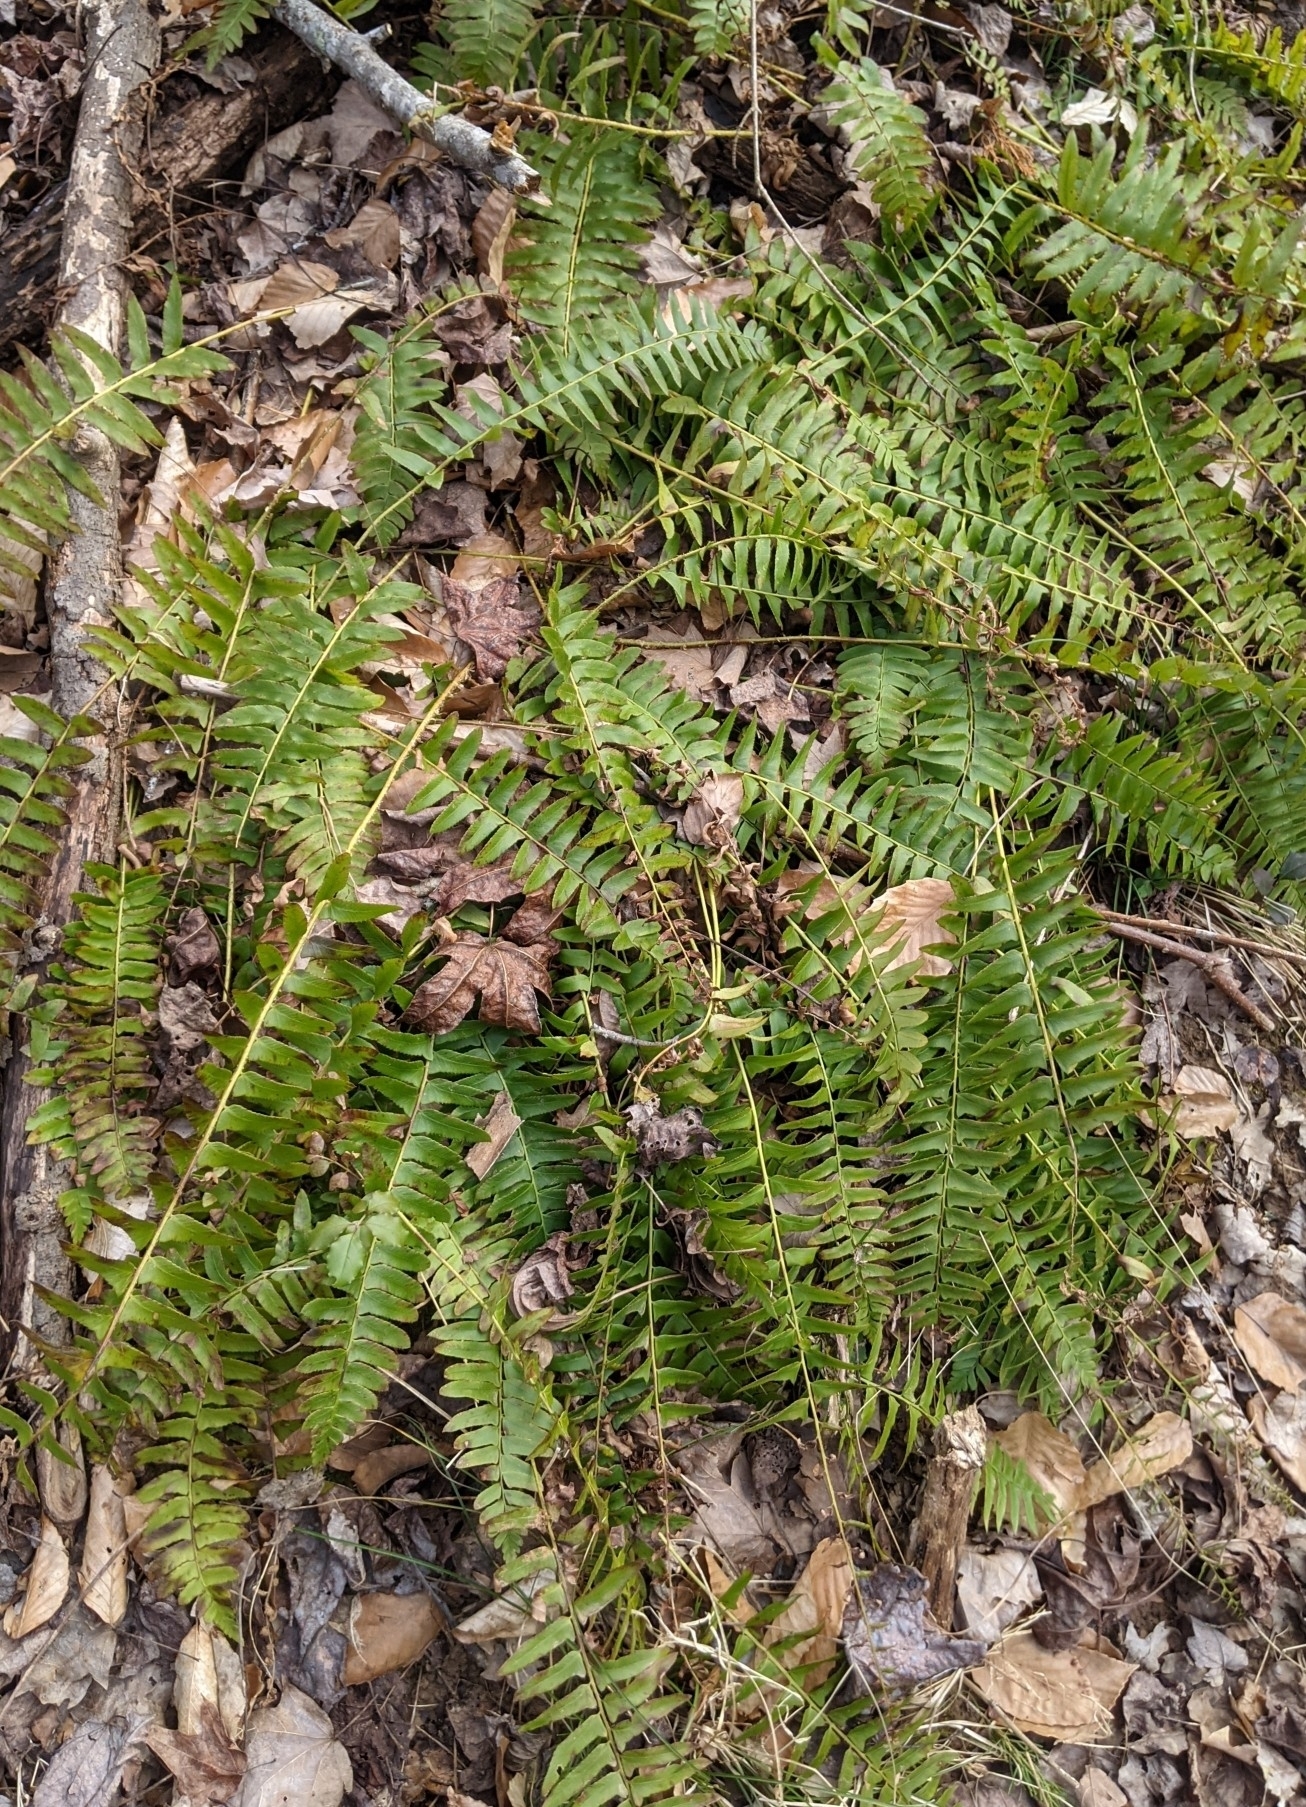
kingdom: Plantae
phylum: Tracheophyta
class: Polypodiopsida
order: Polypodiales
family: Dryopteridaceae
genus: Polystichum
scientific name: Polystichum acrostichoides
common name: Christmas fern
